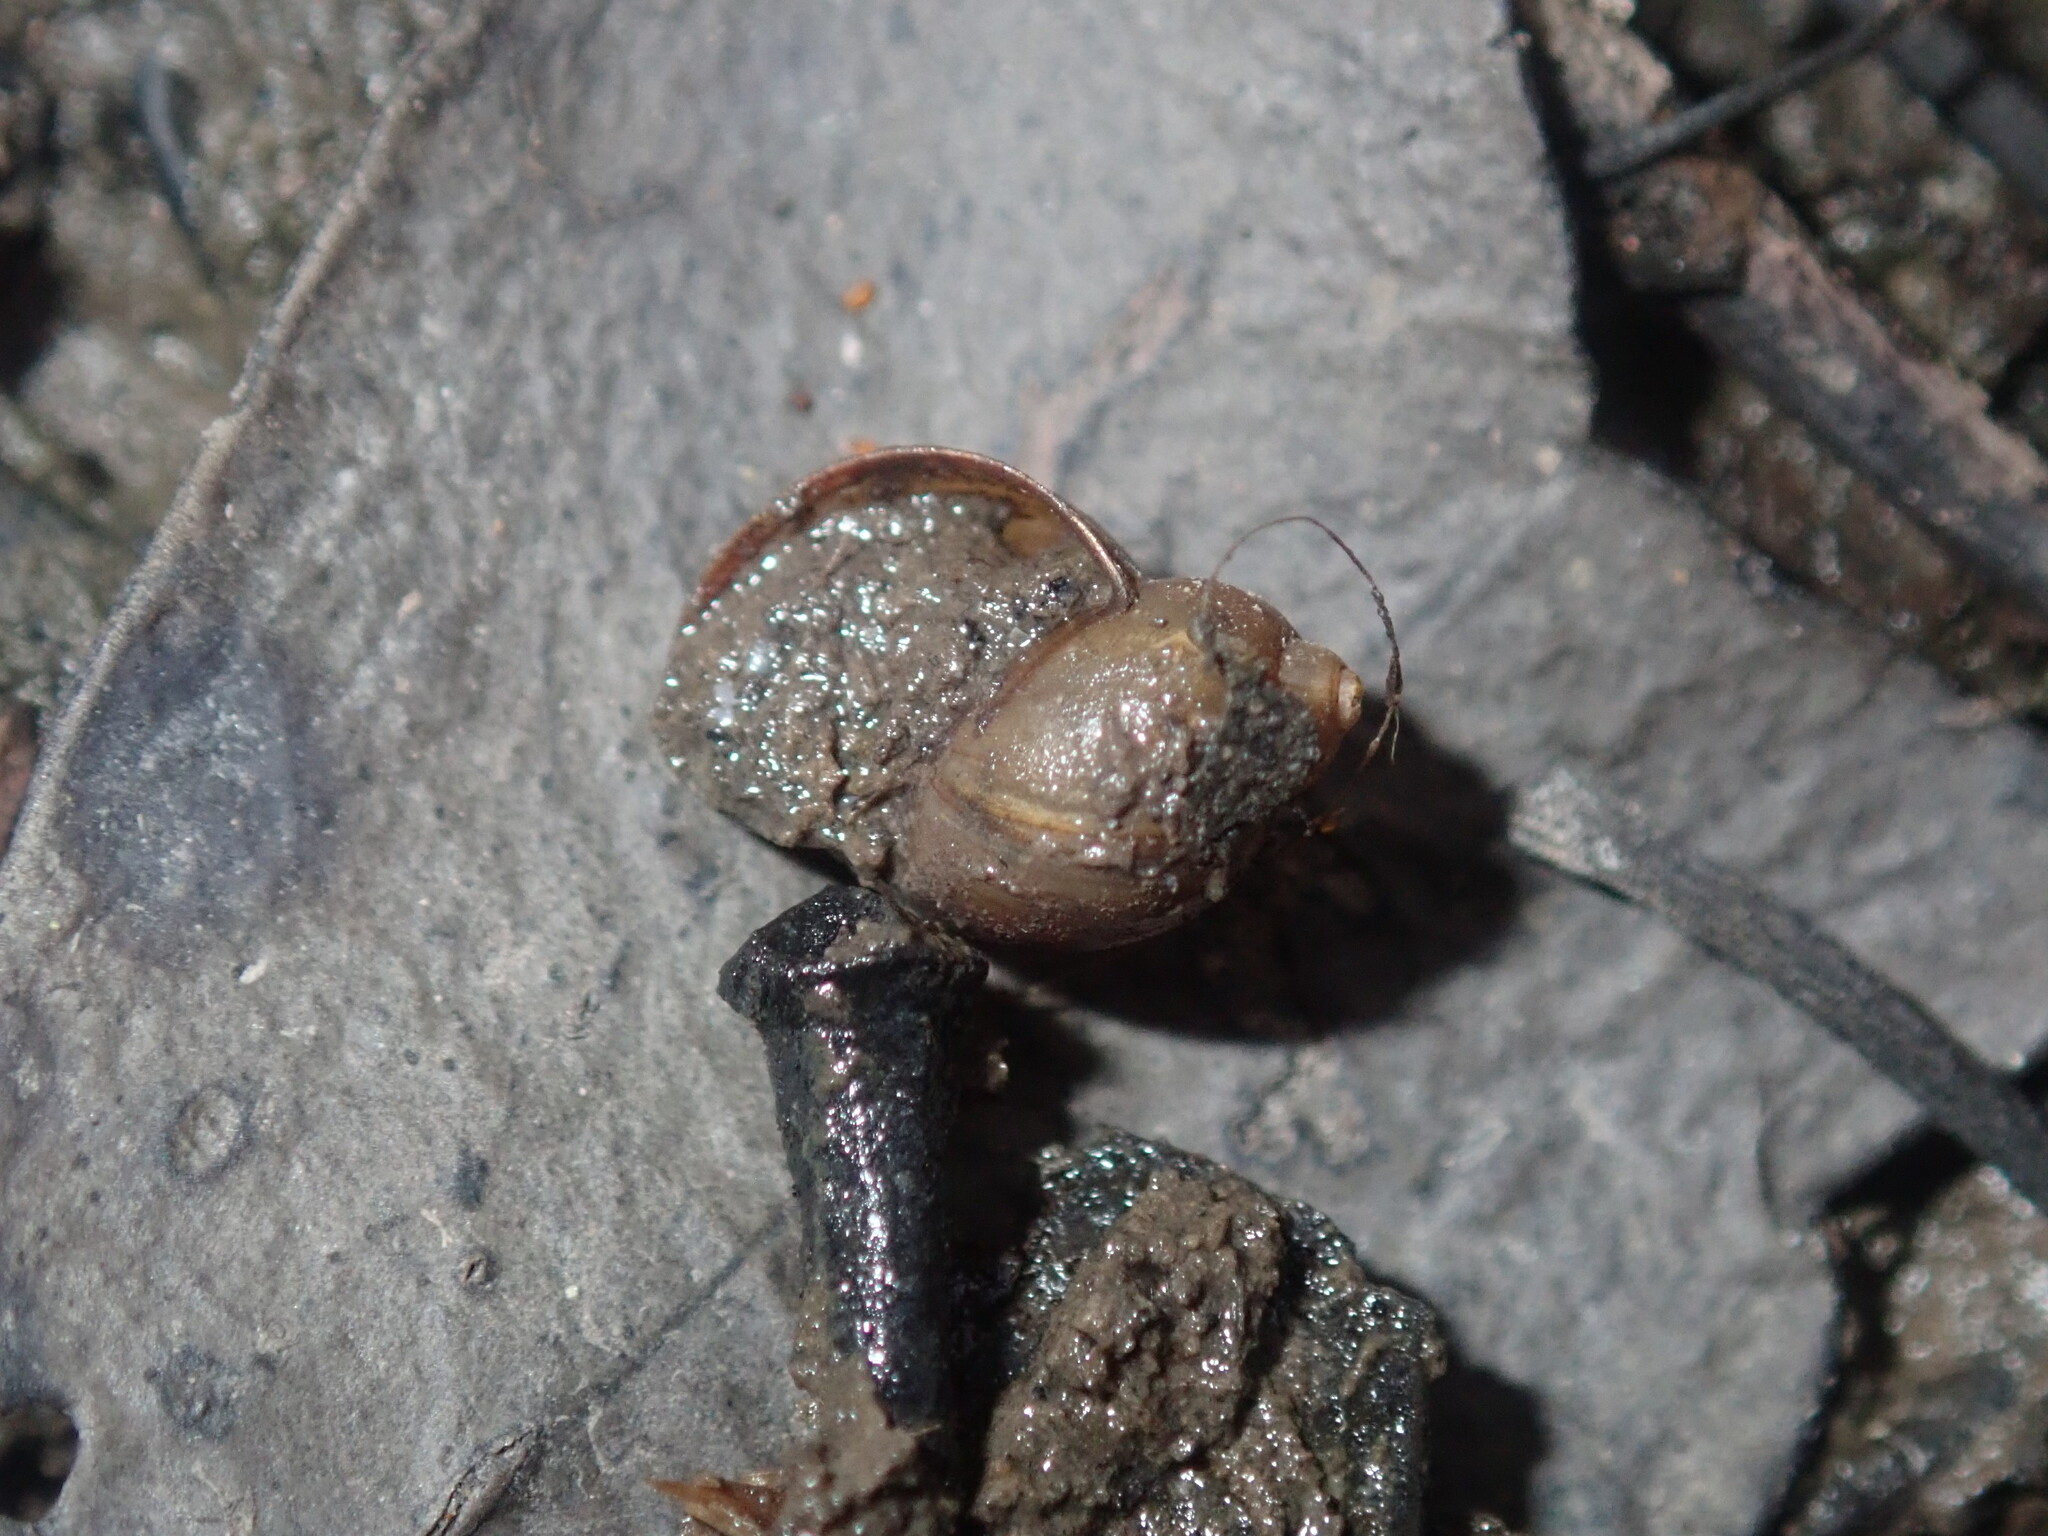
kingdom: Animalia
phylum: Mollusca
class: Gastropoda
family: Planorbidae
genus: Isidorella
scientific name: Isidorella hainesii
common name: Haine’s pouch snail
